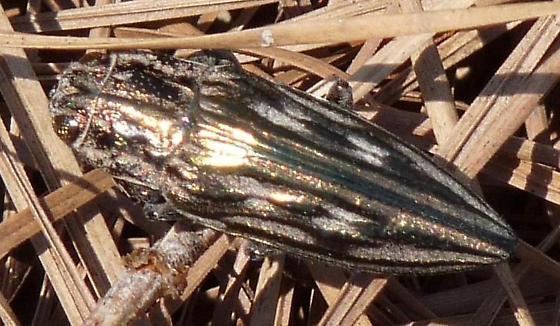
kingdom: Animalia
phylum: Arthropoda
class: Insecta
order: Coleoptera
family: Buprestidae
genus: Chalcophora
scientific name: Chalcophora georgiana
